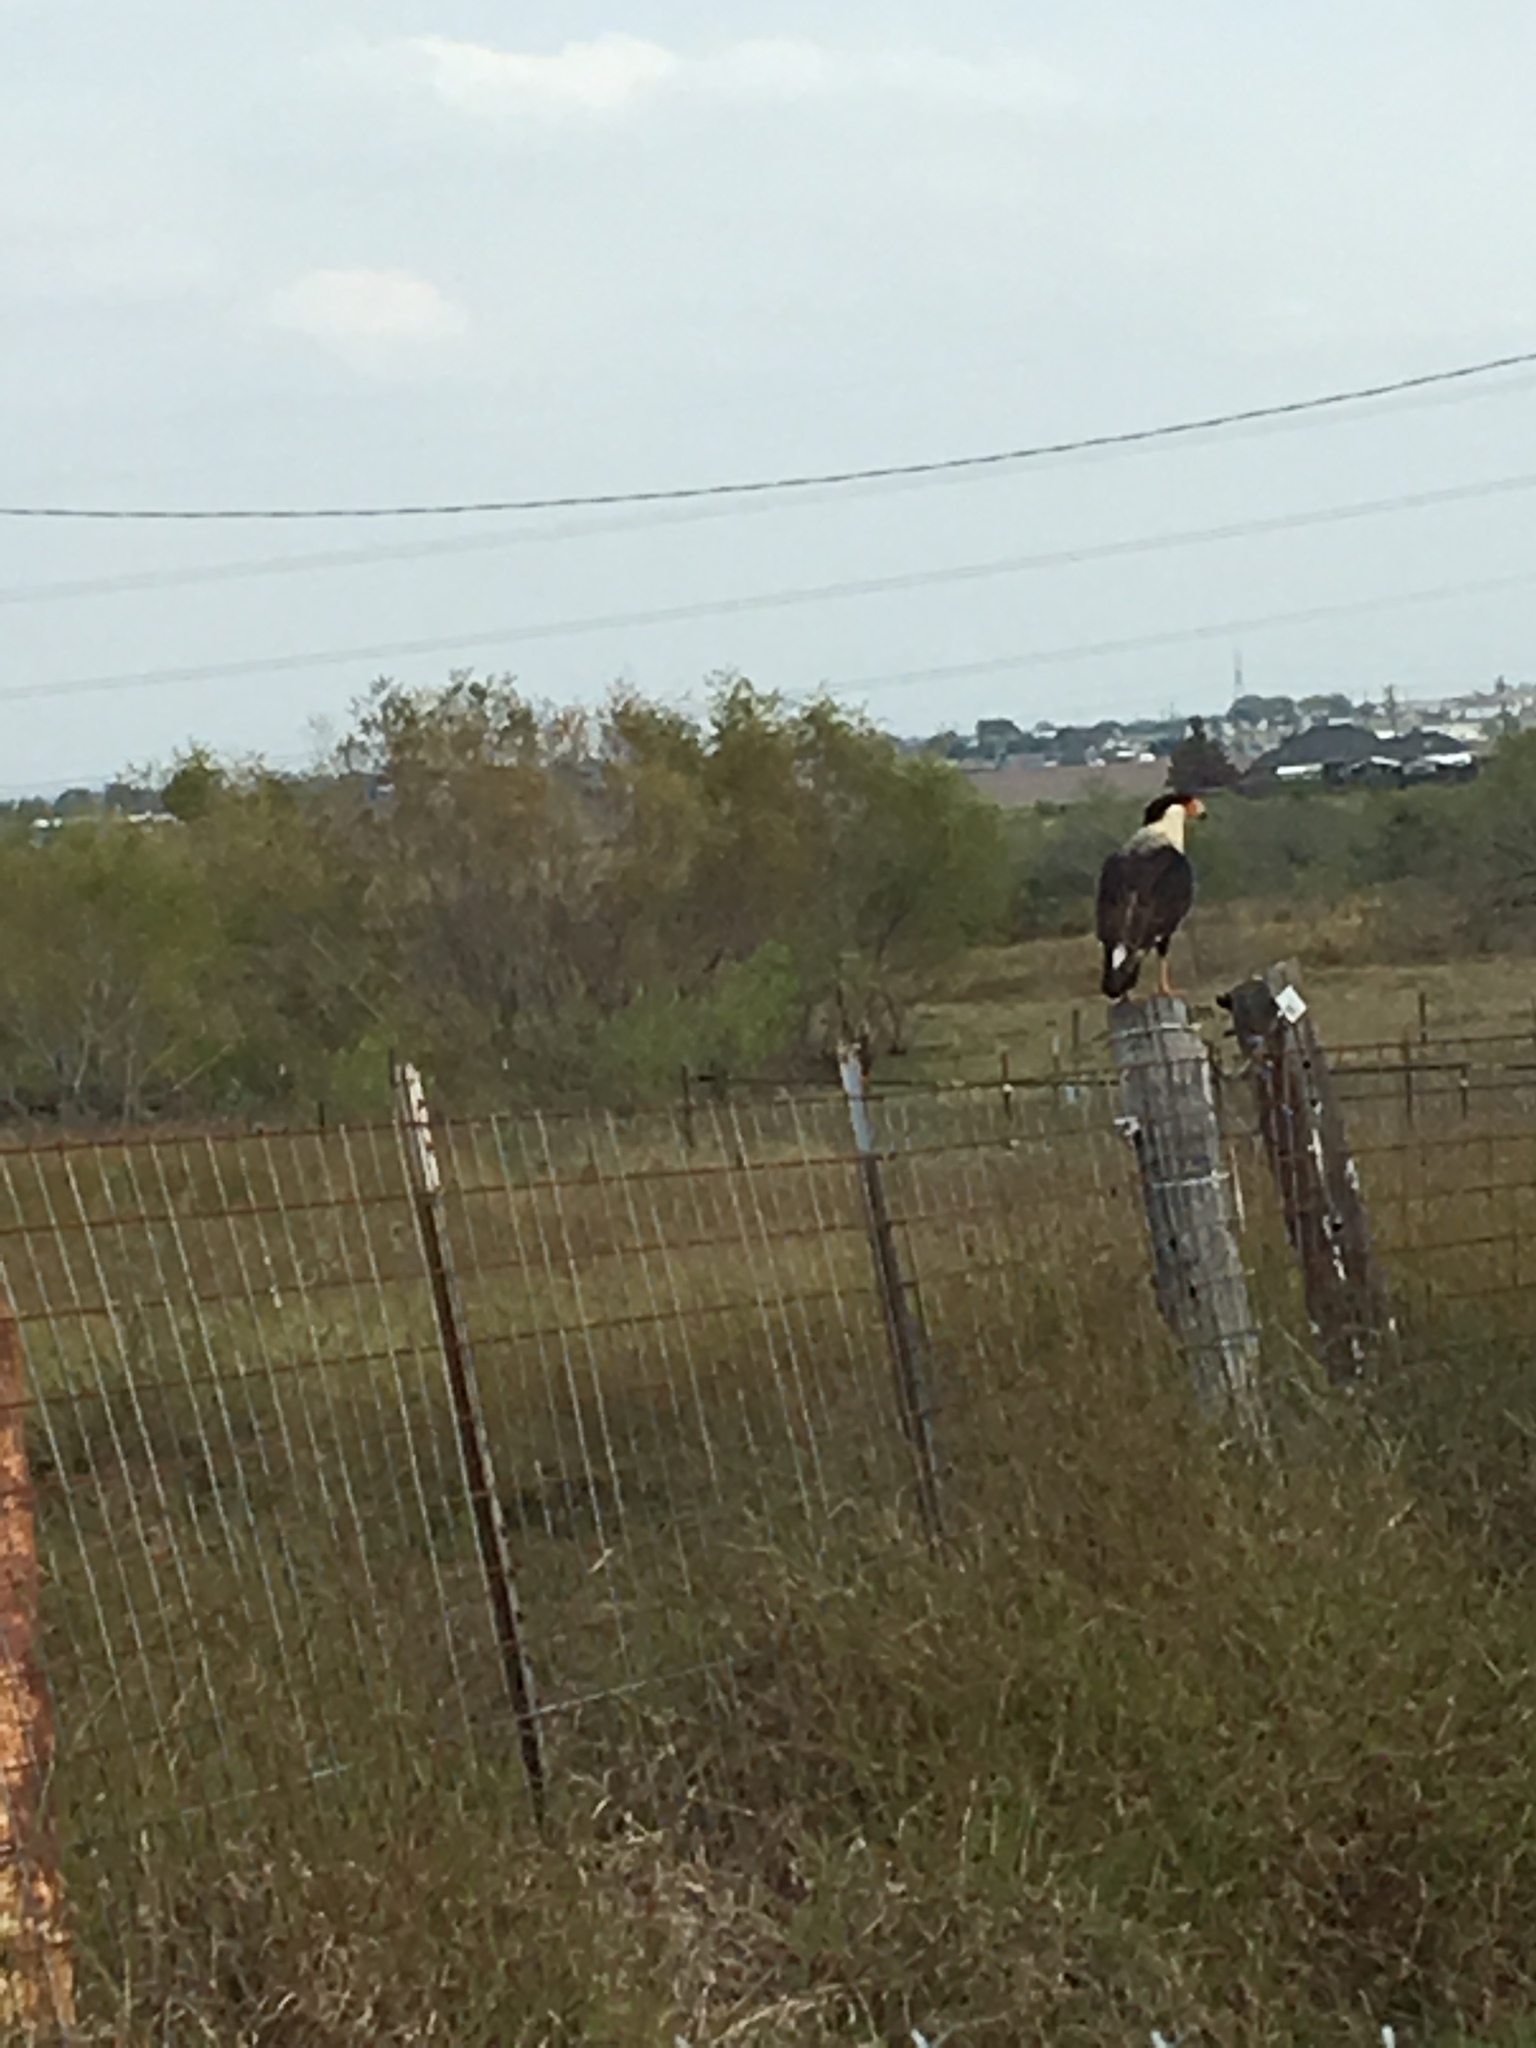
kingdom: Animalia
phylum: Chordata
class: Aves
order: Falconiformes
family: Falconidae
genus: Caracara
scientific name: Caracara plancus
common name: Southern caracara
